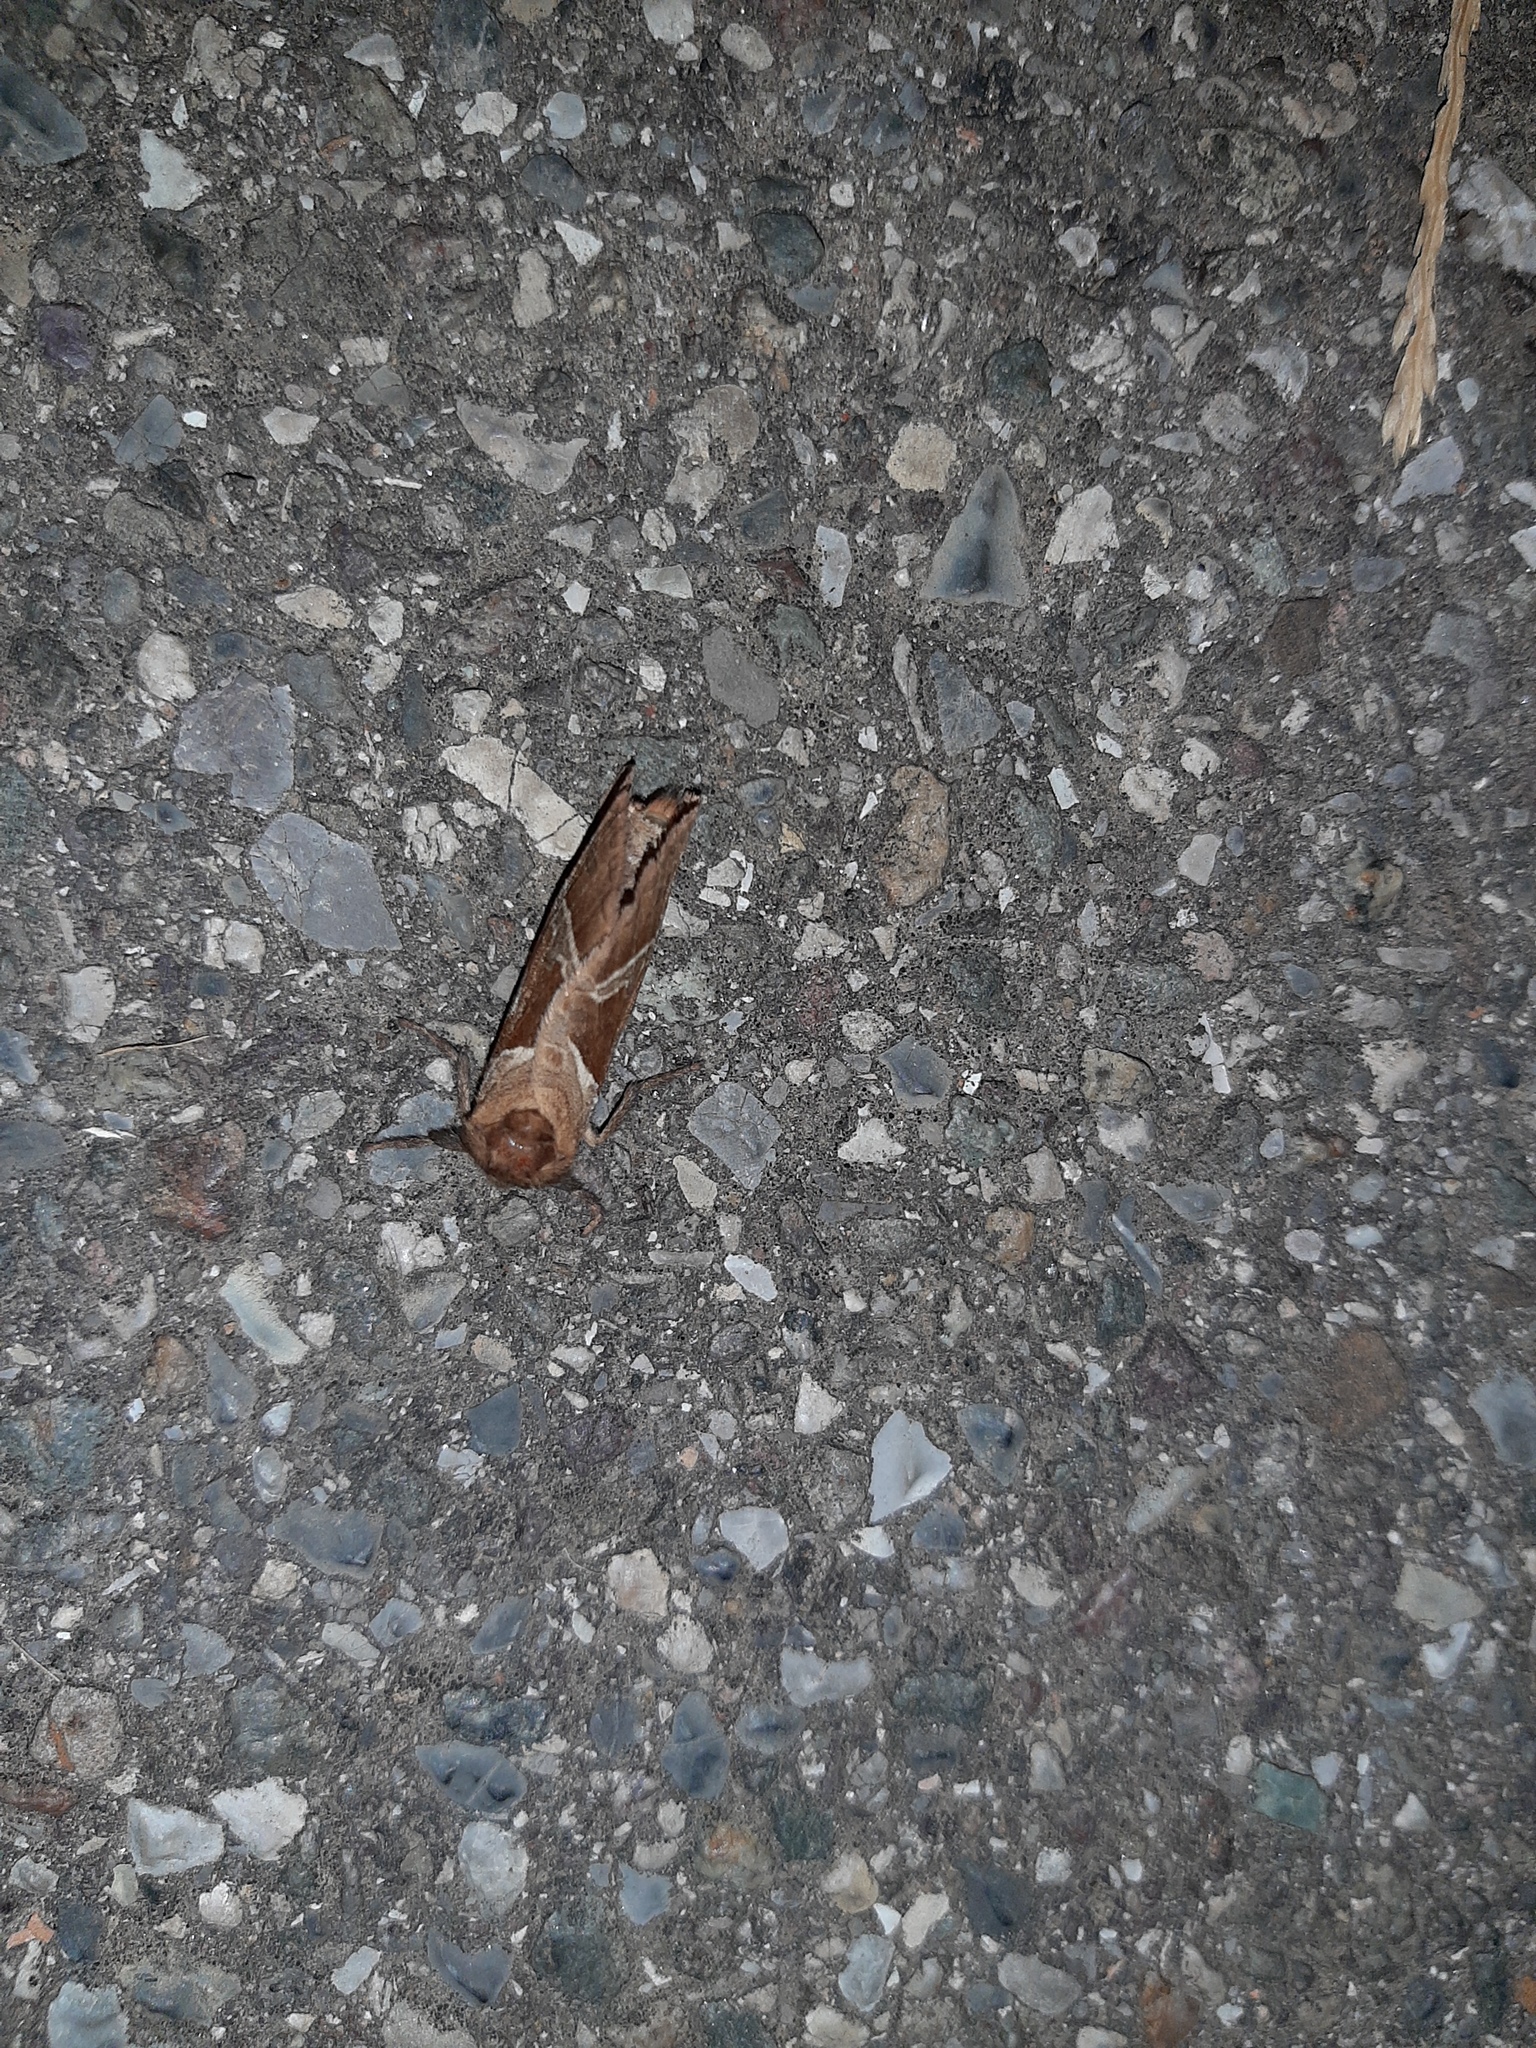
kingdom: Animalia
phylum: Arthropoda
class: Insecta
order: Lepidoptera
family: Hepialidae
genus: Triodia
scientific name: Triodia sylvina
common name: Orange swift
